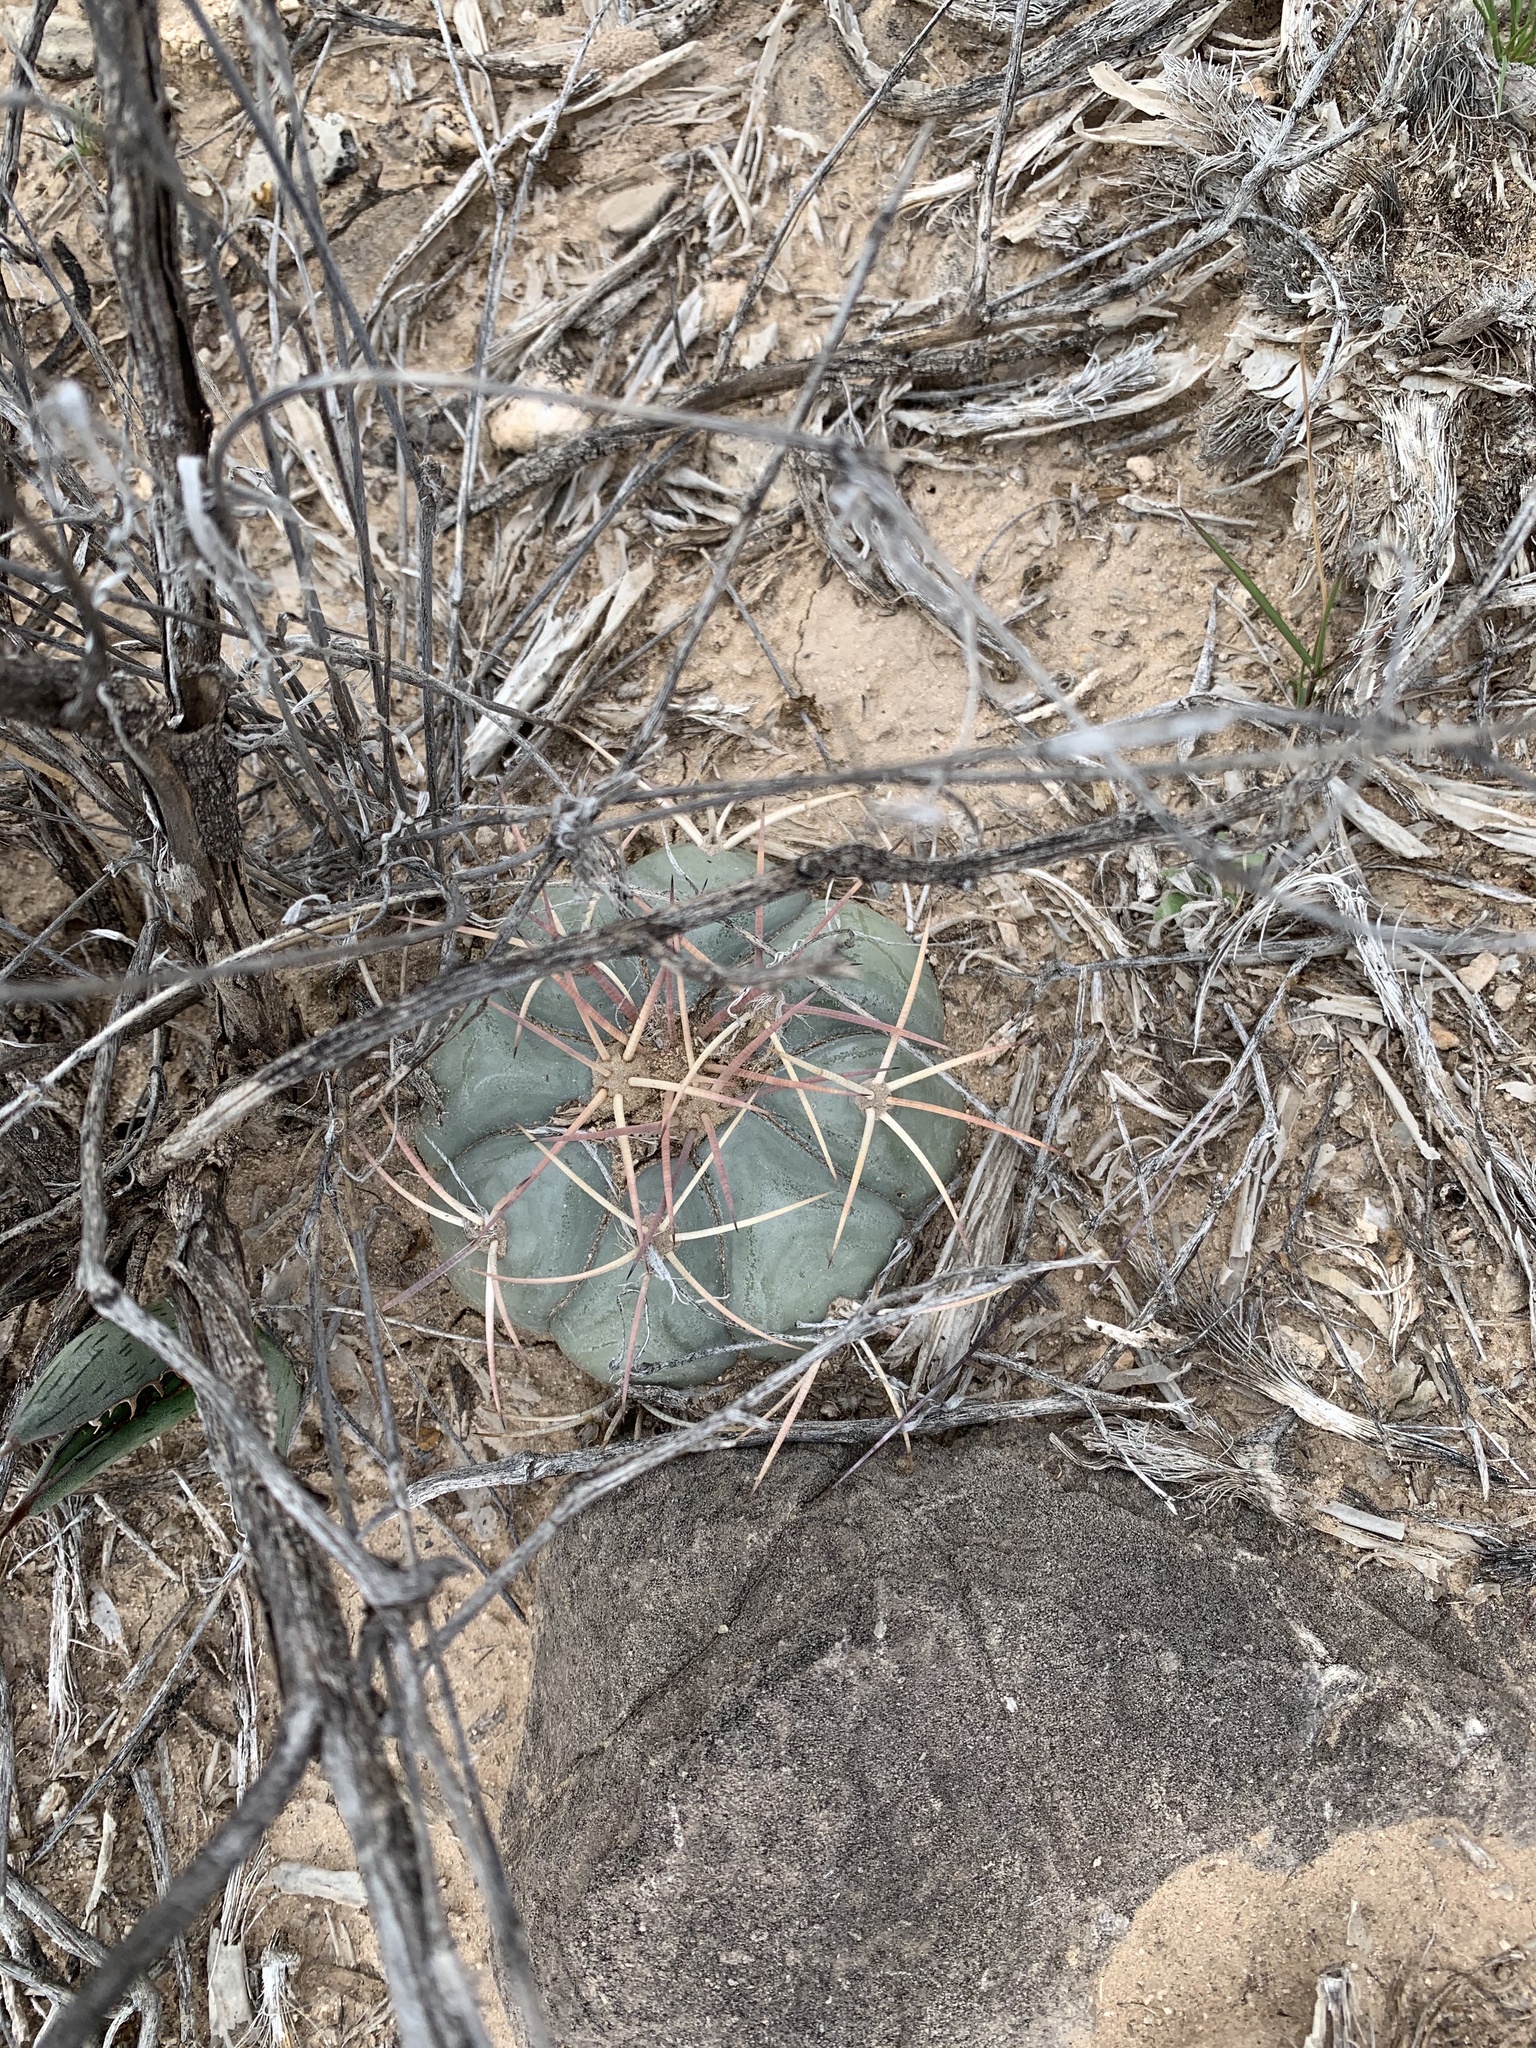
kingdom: Plantae
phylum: Tracheophyta
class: Magnoliopsida
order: Caryophyllales
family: Cactaceae
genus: Echinocactus
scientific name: Echinocactus horizonthalonius
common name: Devilshead
